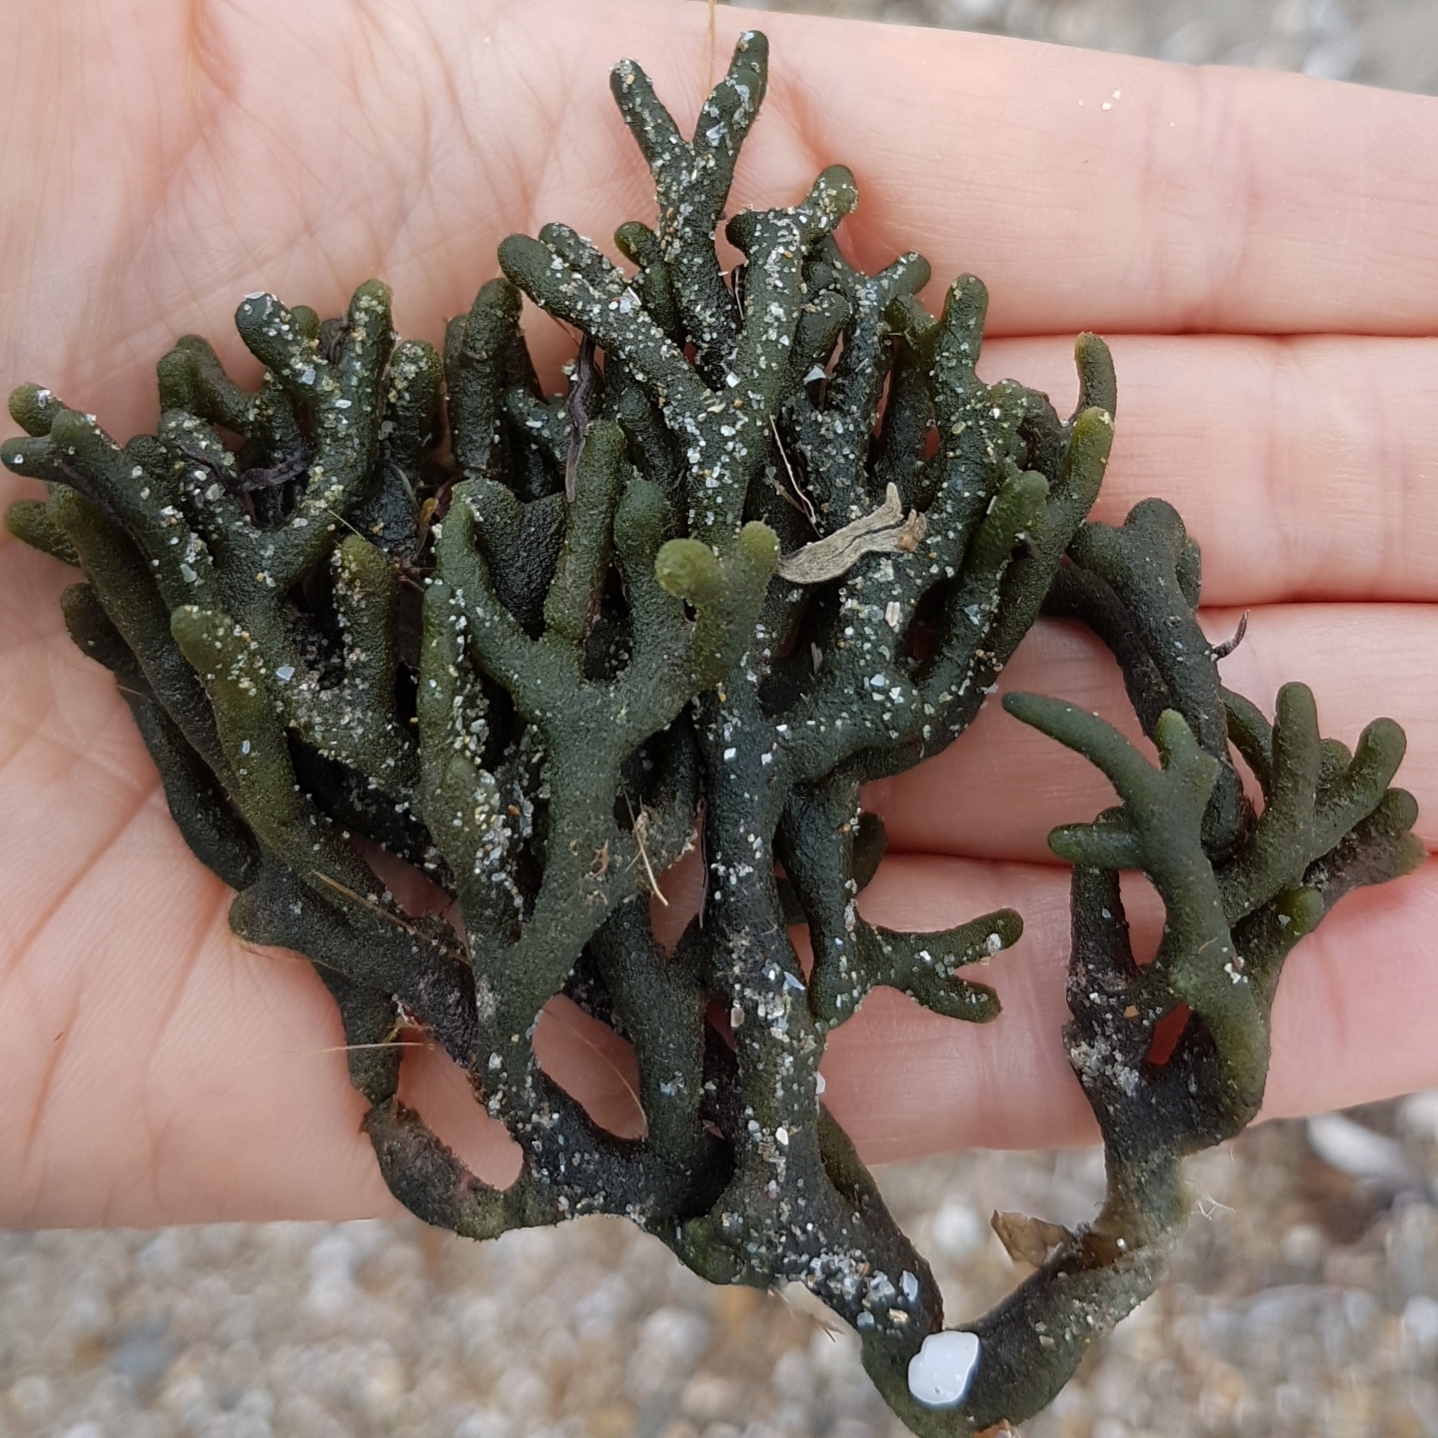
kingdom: Plantae
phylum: Chlorophyta
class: Ulvophyceae
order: Bryopsidales
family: Codiaceae
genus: Codium
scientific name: Codium
